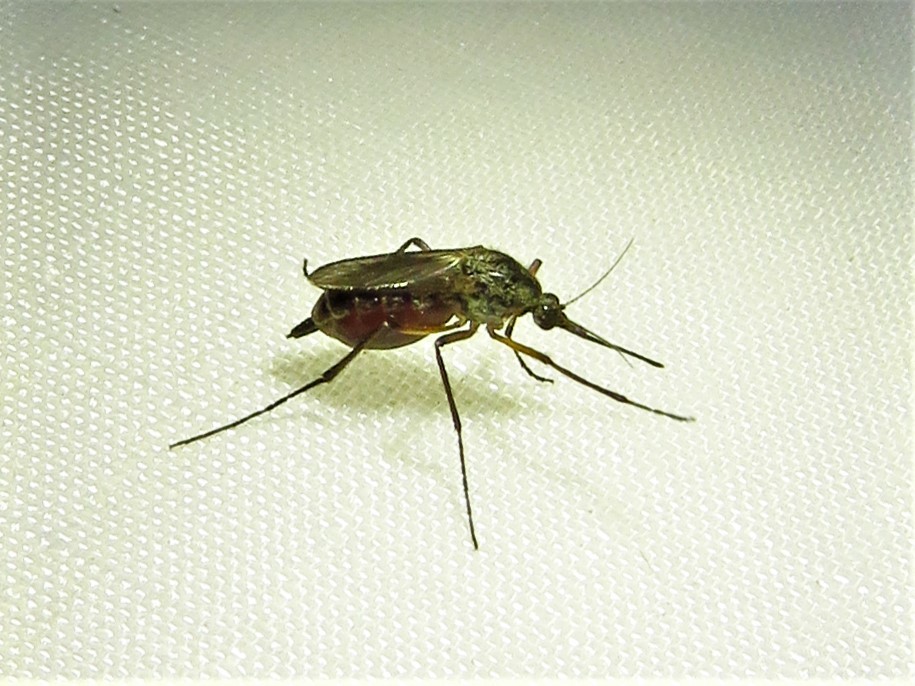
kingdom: Animalia
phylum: Arthropoda
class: Insecta
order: Diptera
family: Culicidae
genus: Psorophora
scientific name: Psorophora cyanescens
